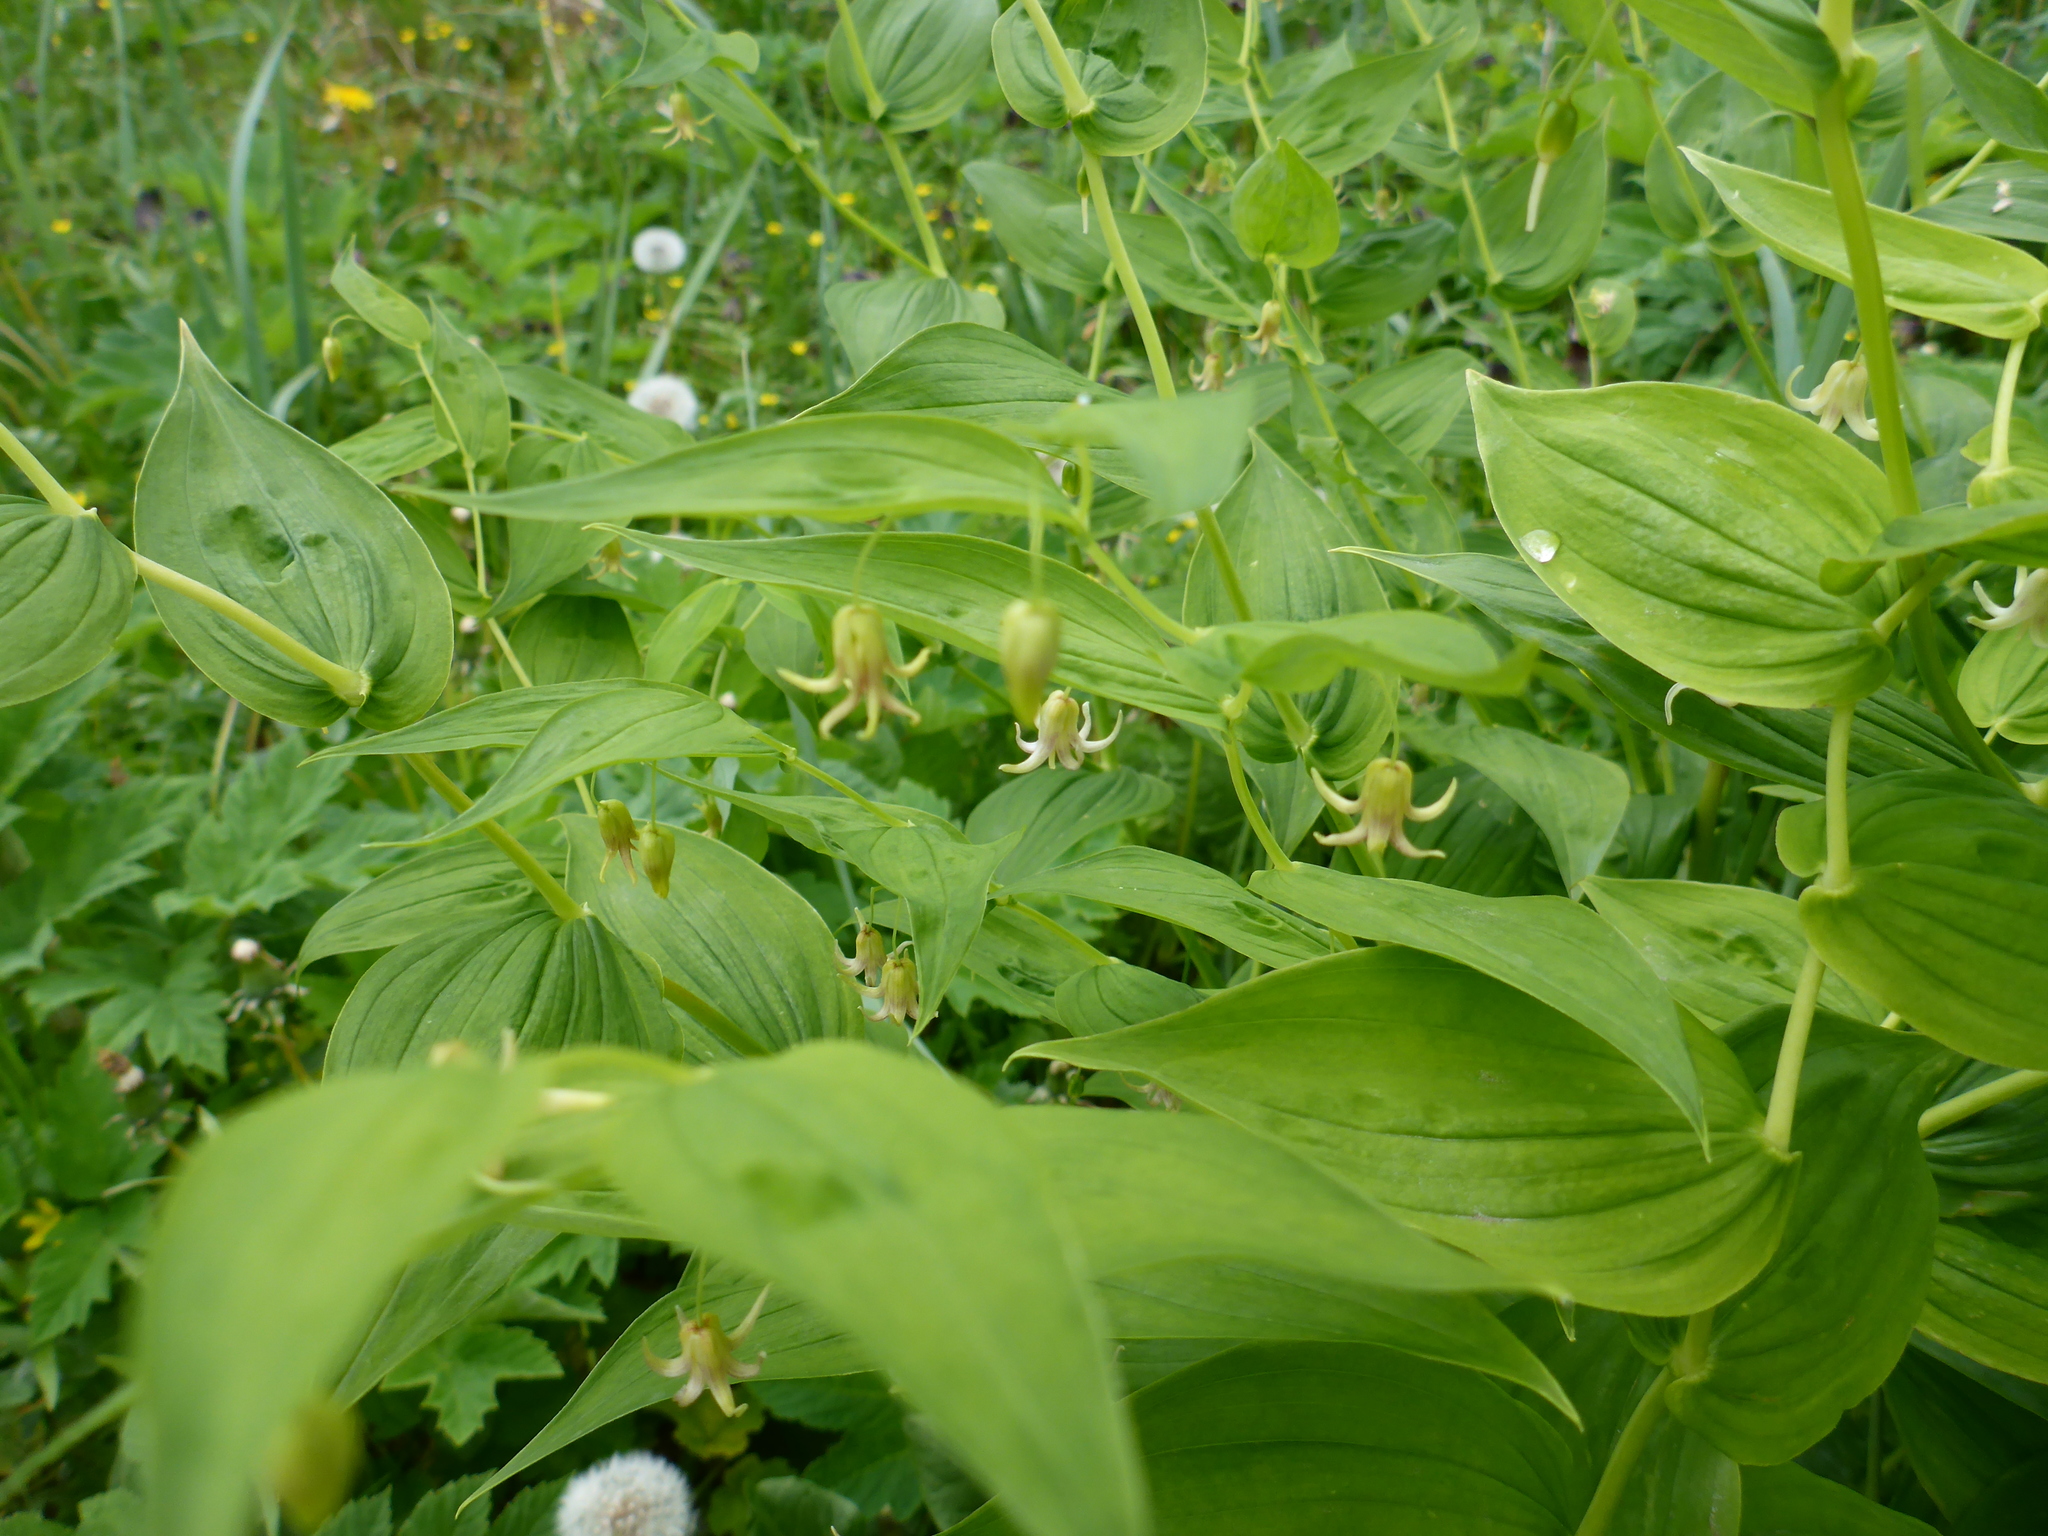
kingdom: Plantae
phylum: Tracheophyta
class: Liliopsida
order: Liliales
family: Liliaceae
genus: Streptopus
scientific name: Streptopus amplexifolius
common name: Clasp twisted stalk
